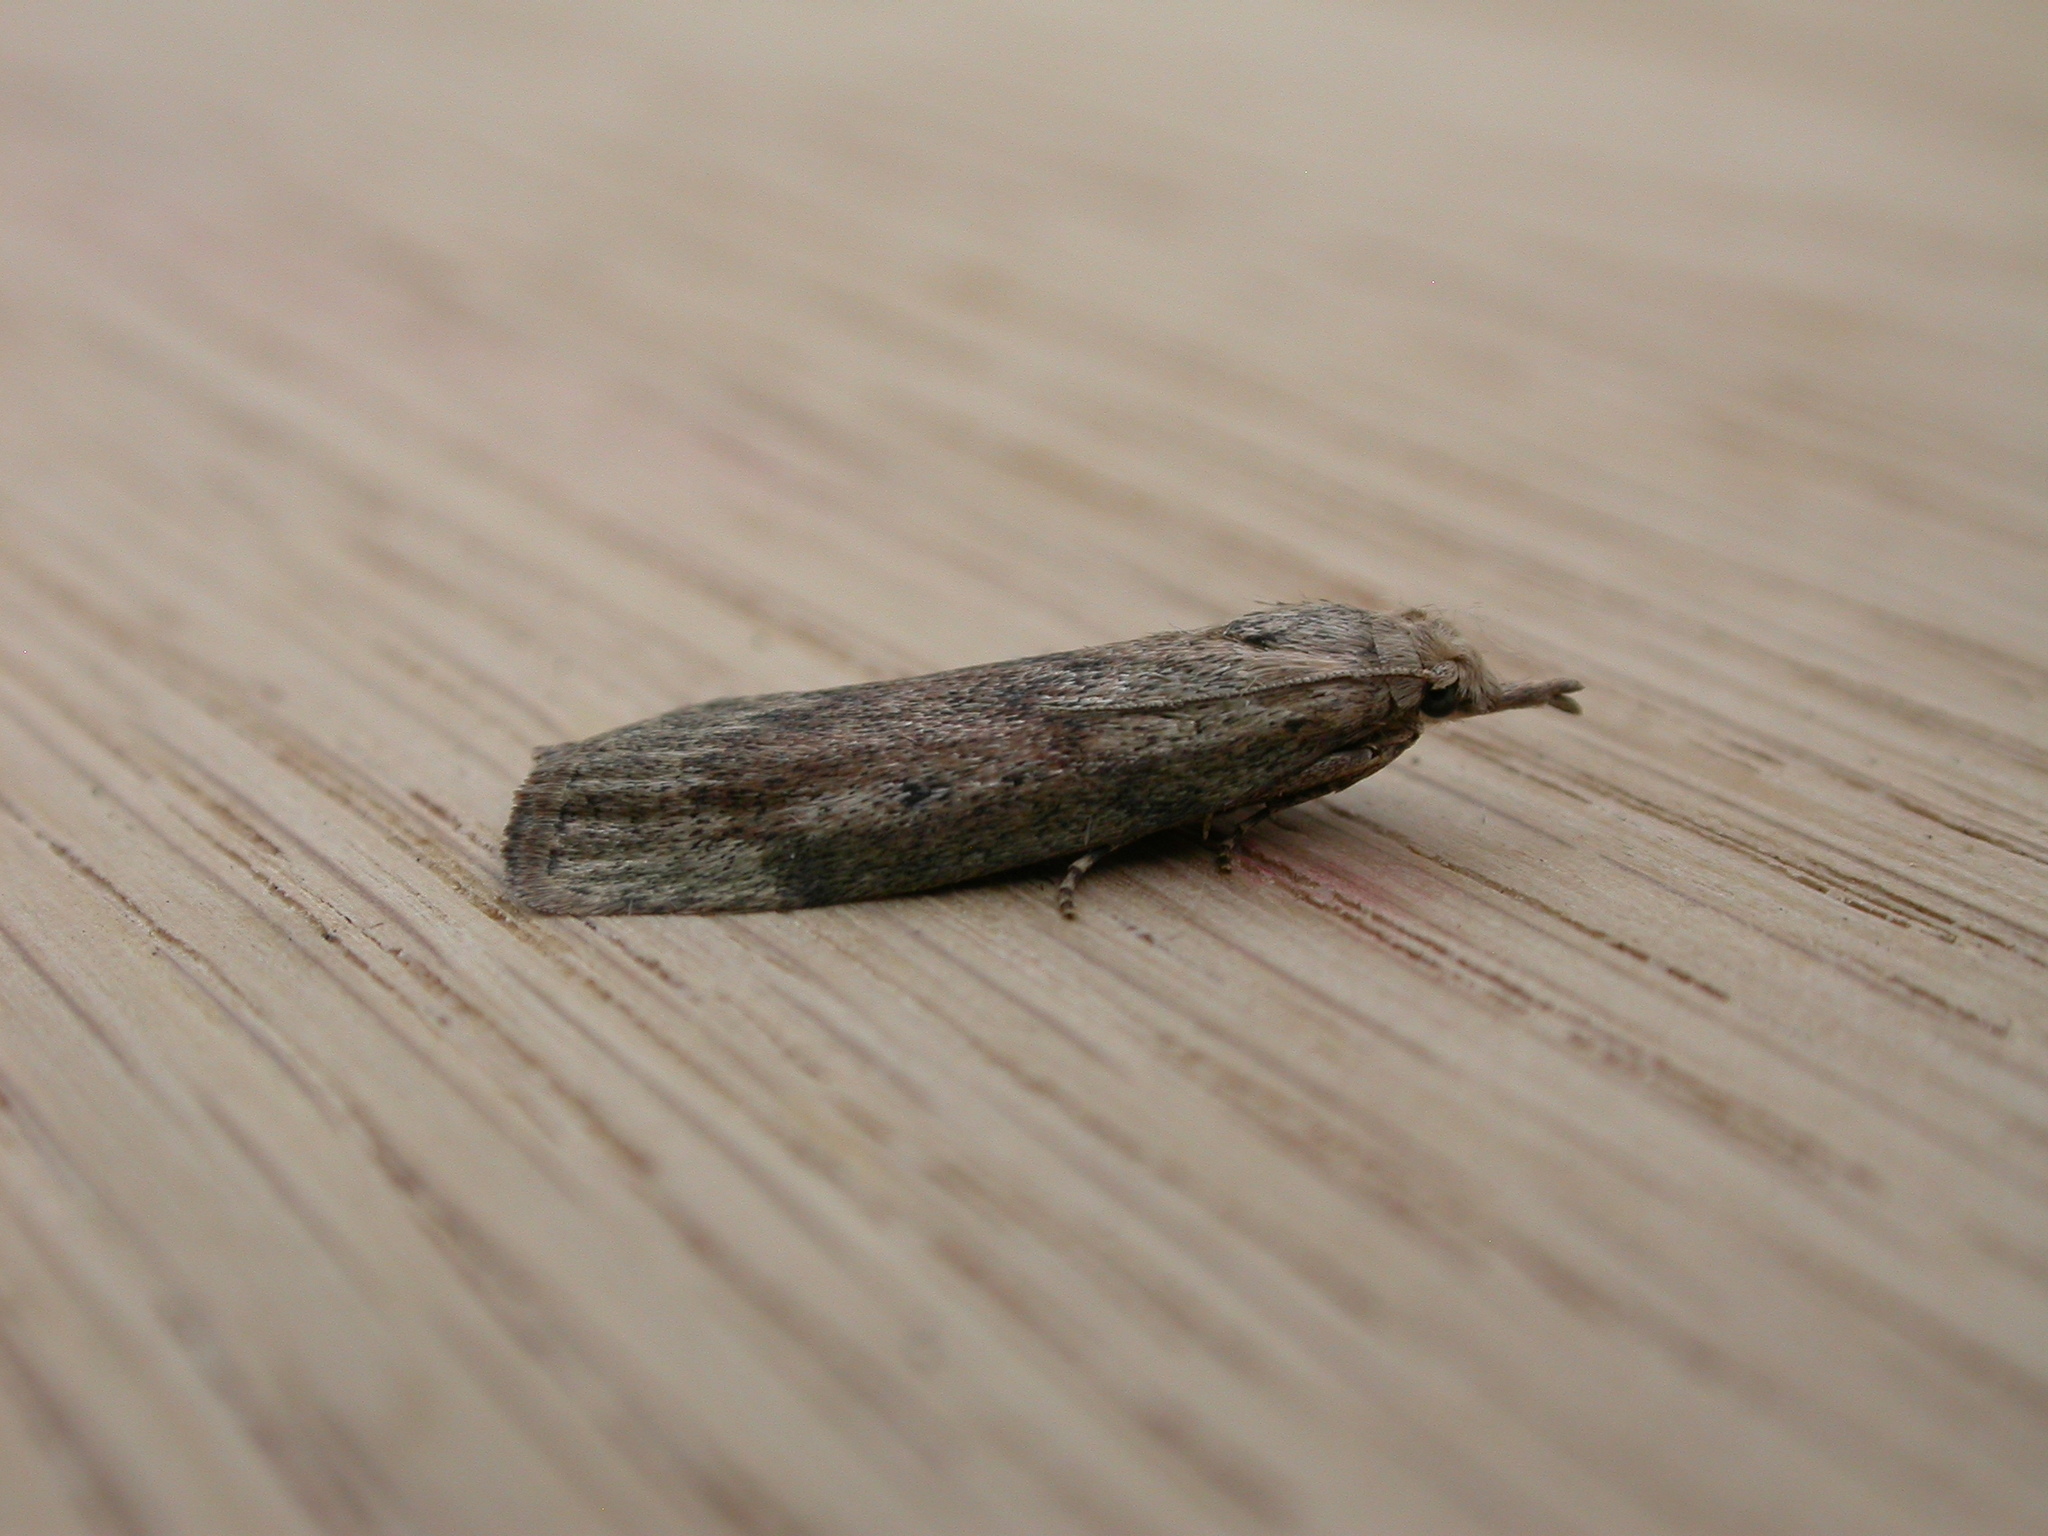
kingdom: Animalia
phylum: Arthropoda
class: Insecta
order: Lepidoptera
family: Pyralidae
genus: Aphomia
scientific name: Aphomia sociella
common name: Bee moth
